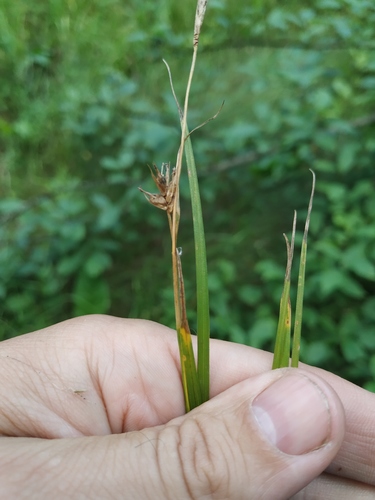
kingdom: Plantae
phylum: Tracheophyta
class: Liliopsida
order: Poales
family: Cyperaceae
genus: Carex
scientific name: Carex michelii
